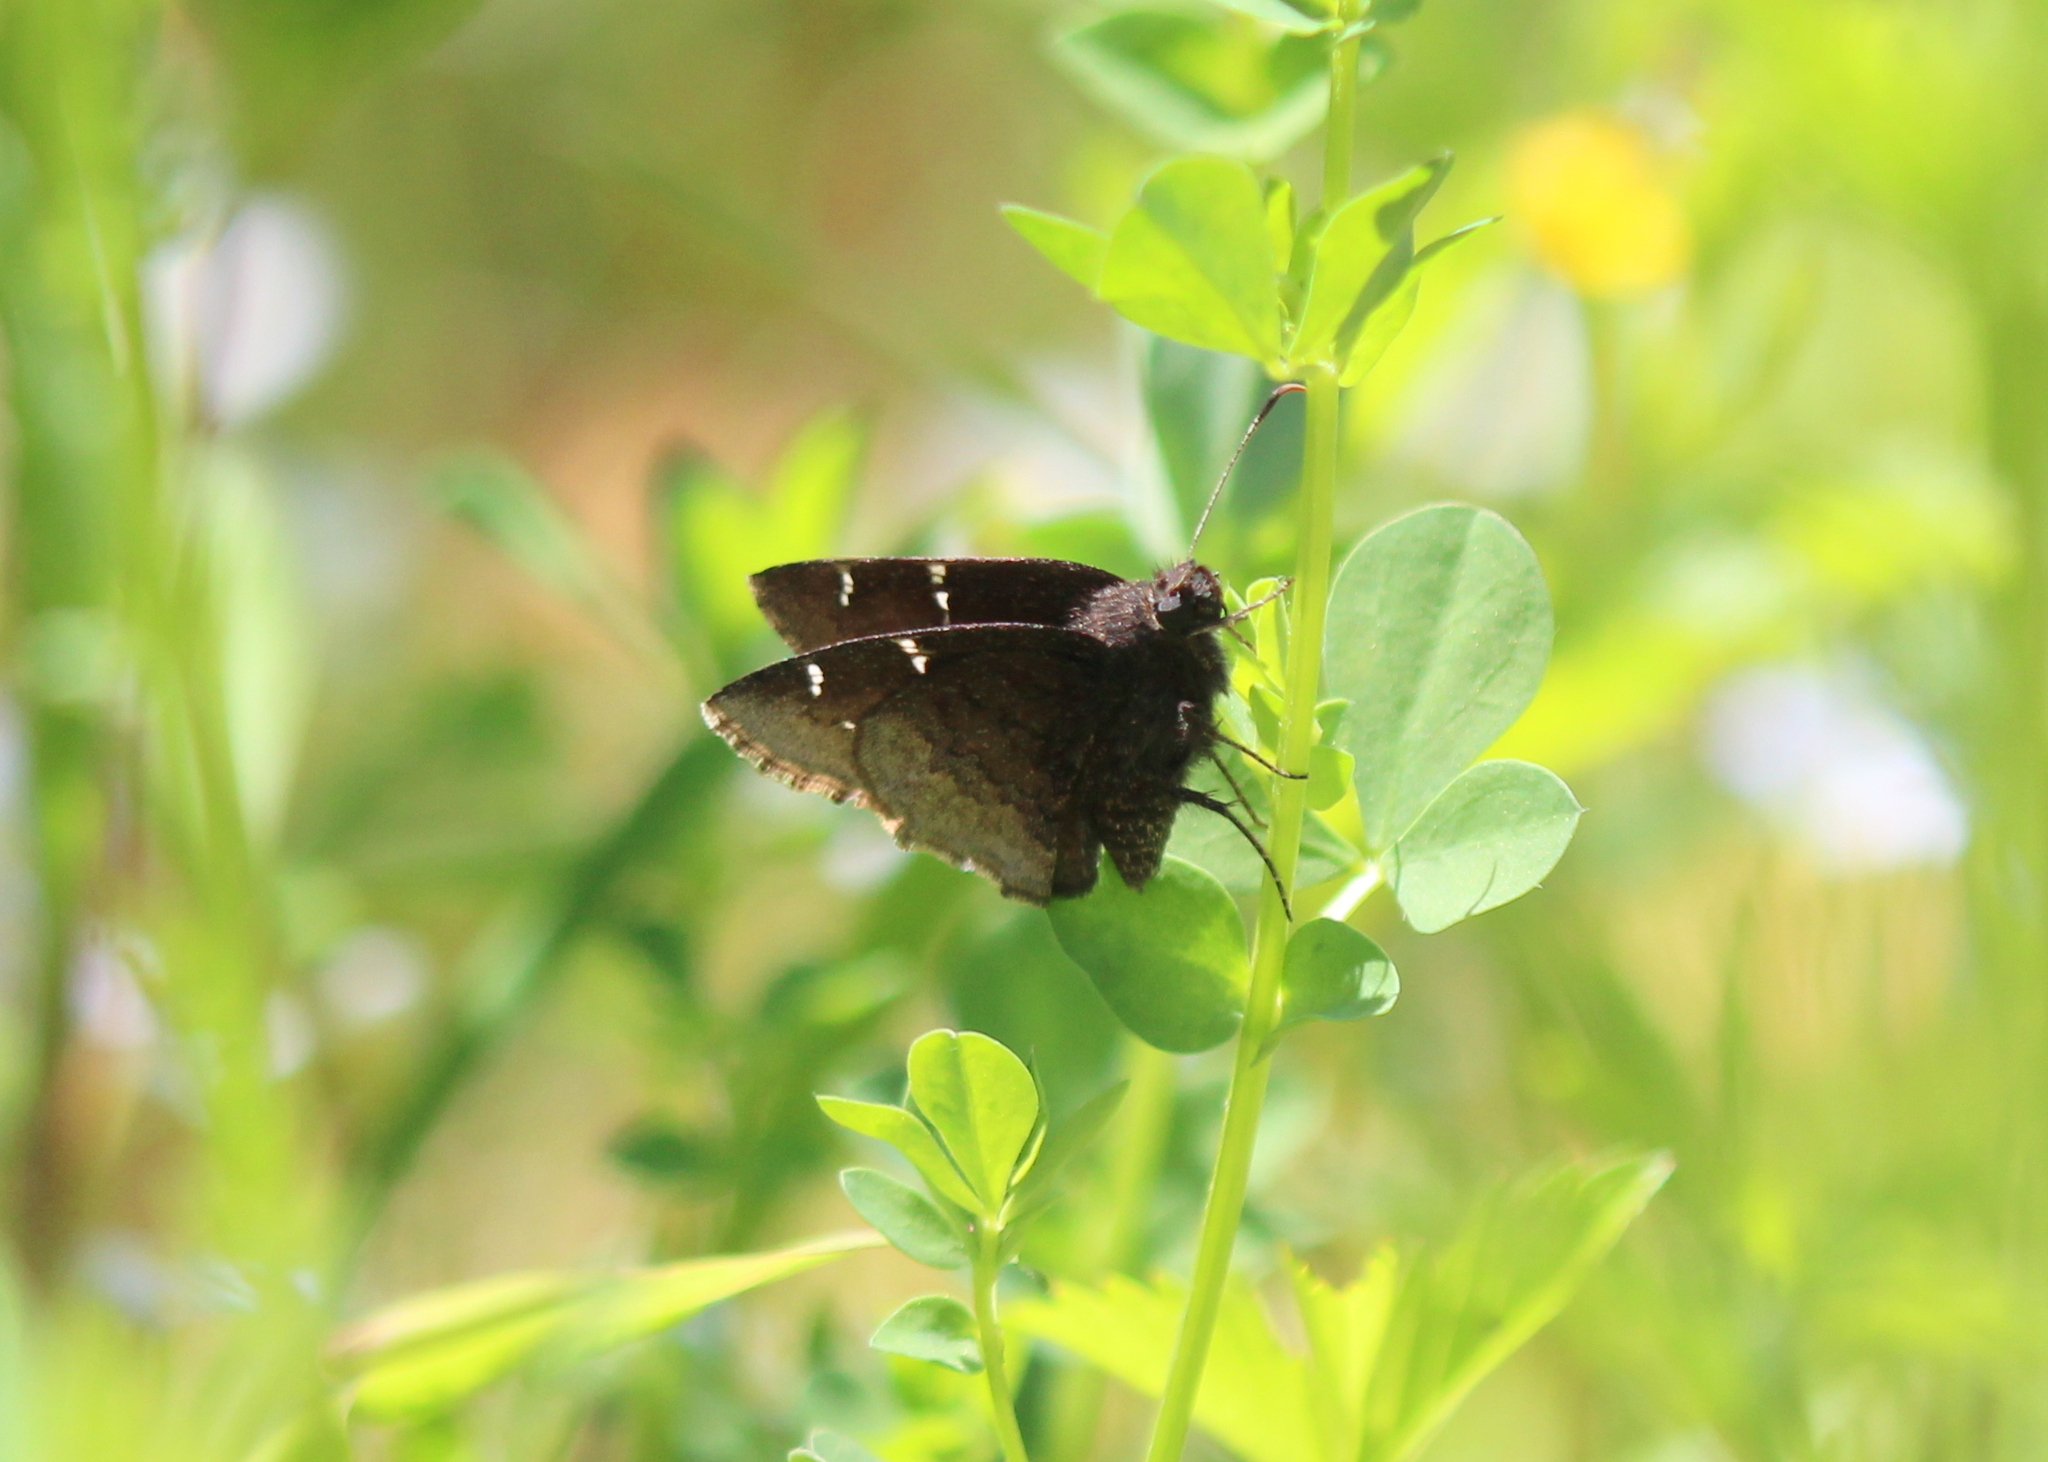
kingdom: Animalia
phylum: Arthropoda
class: Insecta
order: Lepidoptera
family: Hesperiidae
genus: Thorybes
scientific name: Thorybes pylades
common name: Northern cloudywing
